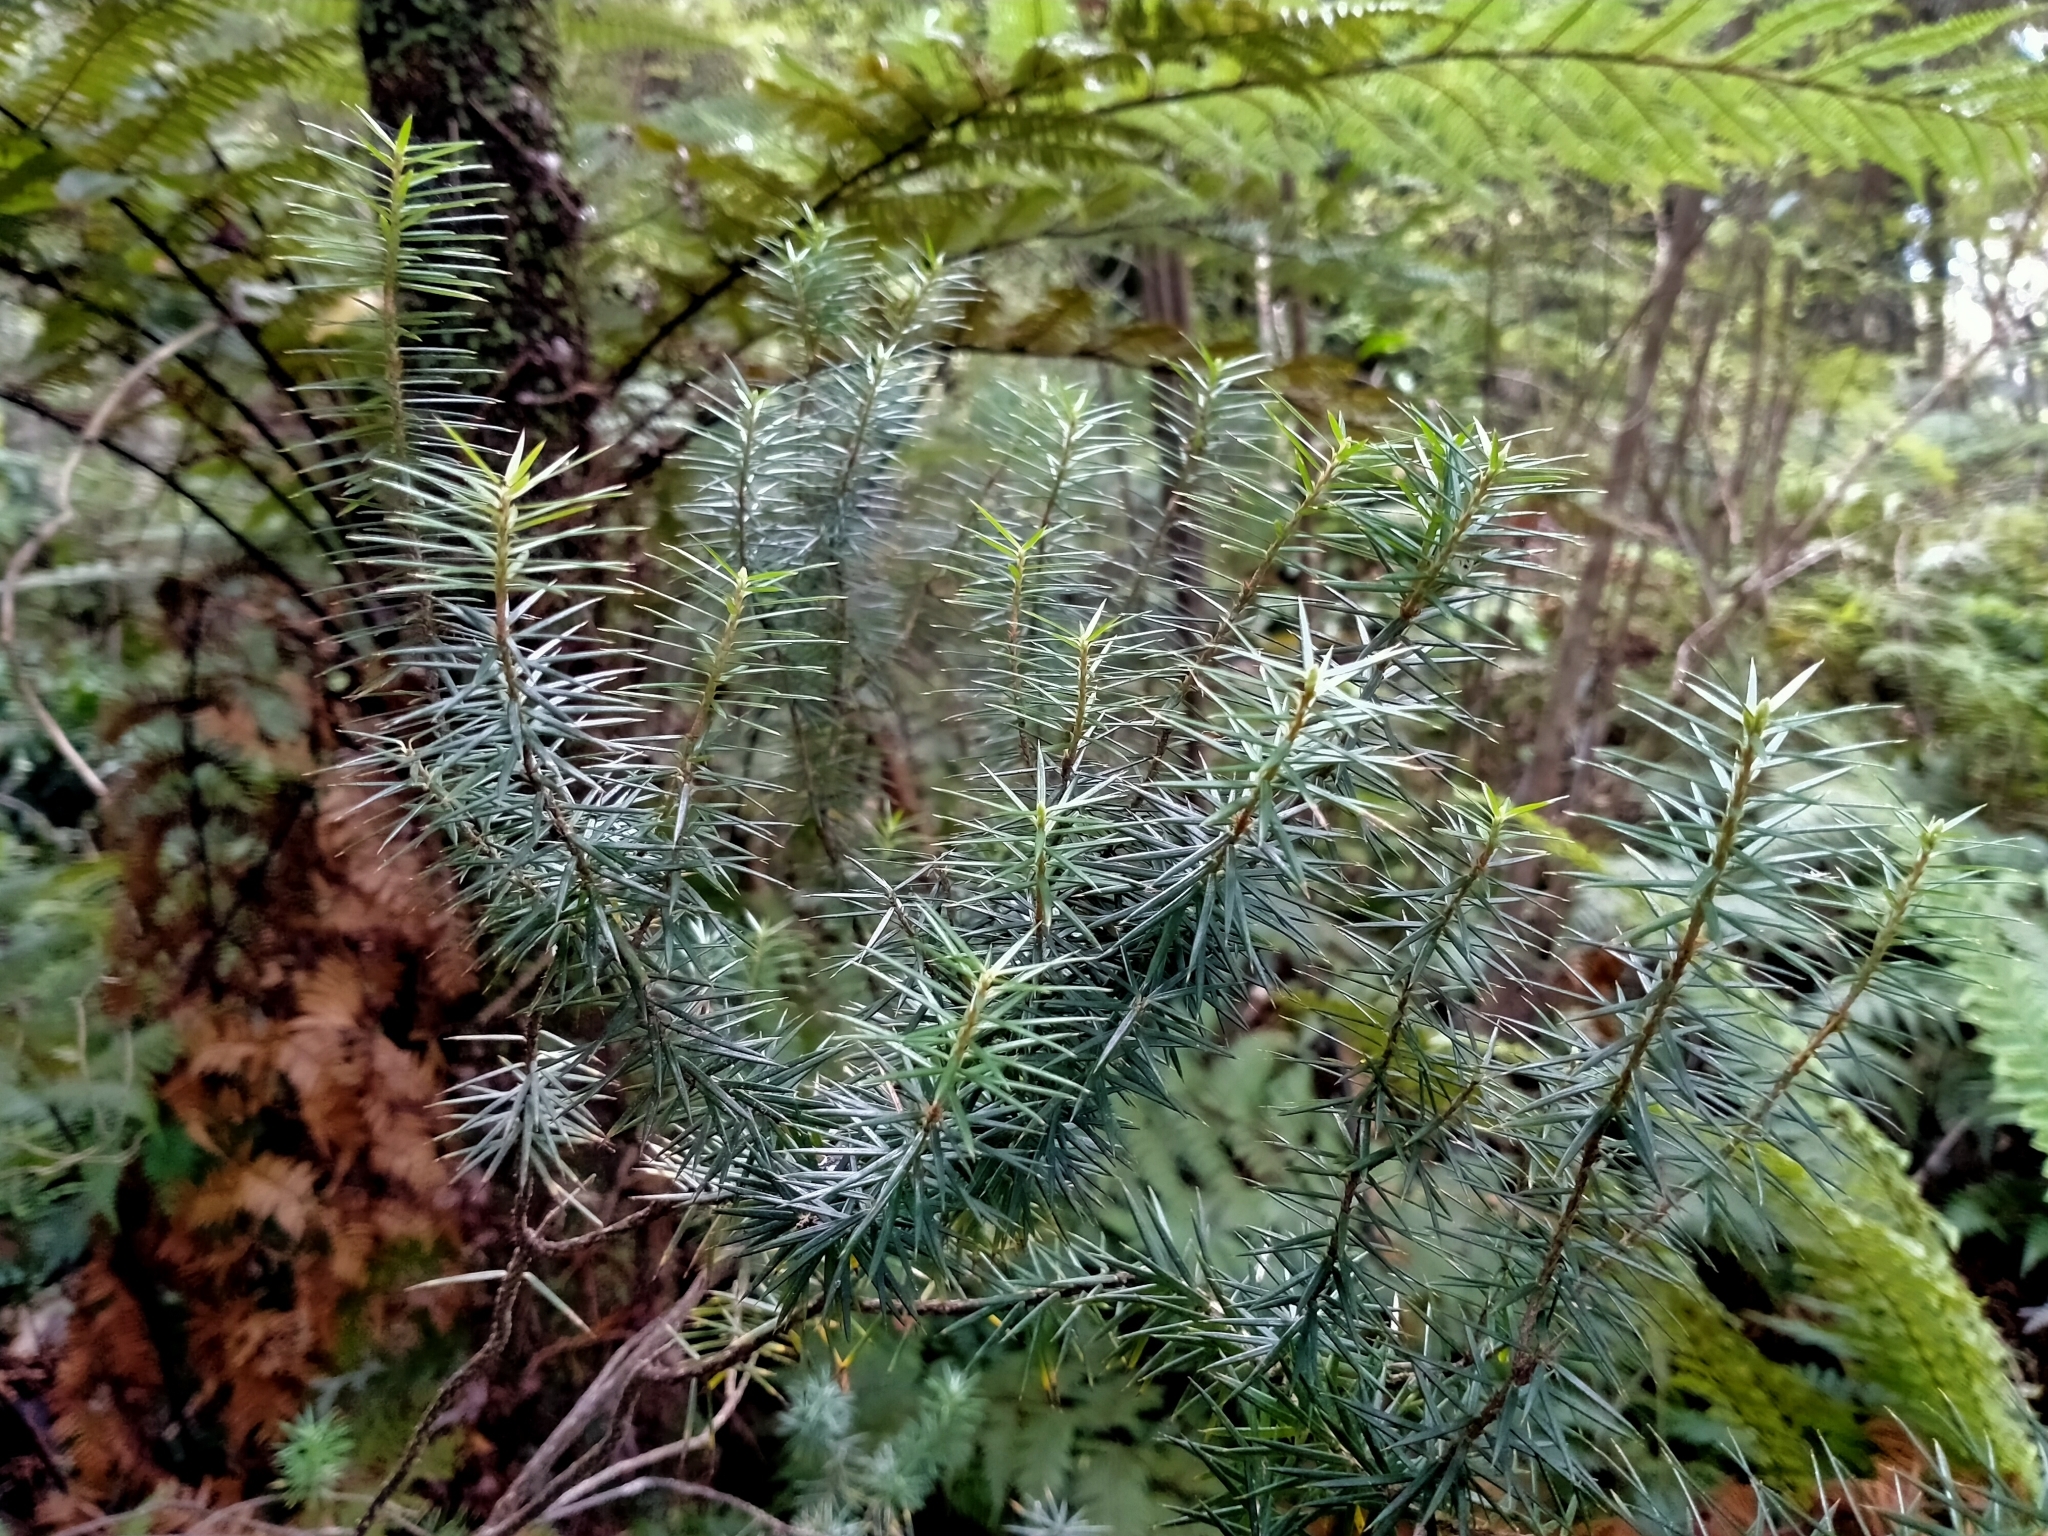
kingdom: Plantae
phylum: Tracheophyta
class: Magnoliopsida
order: Ericales
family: Ericaceae
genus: Leptecophylla
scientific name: Leptecophylla juniperina
